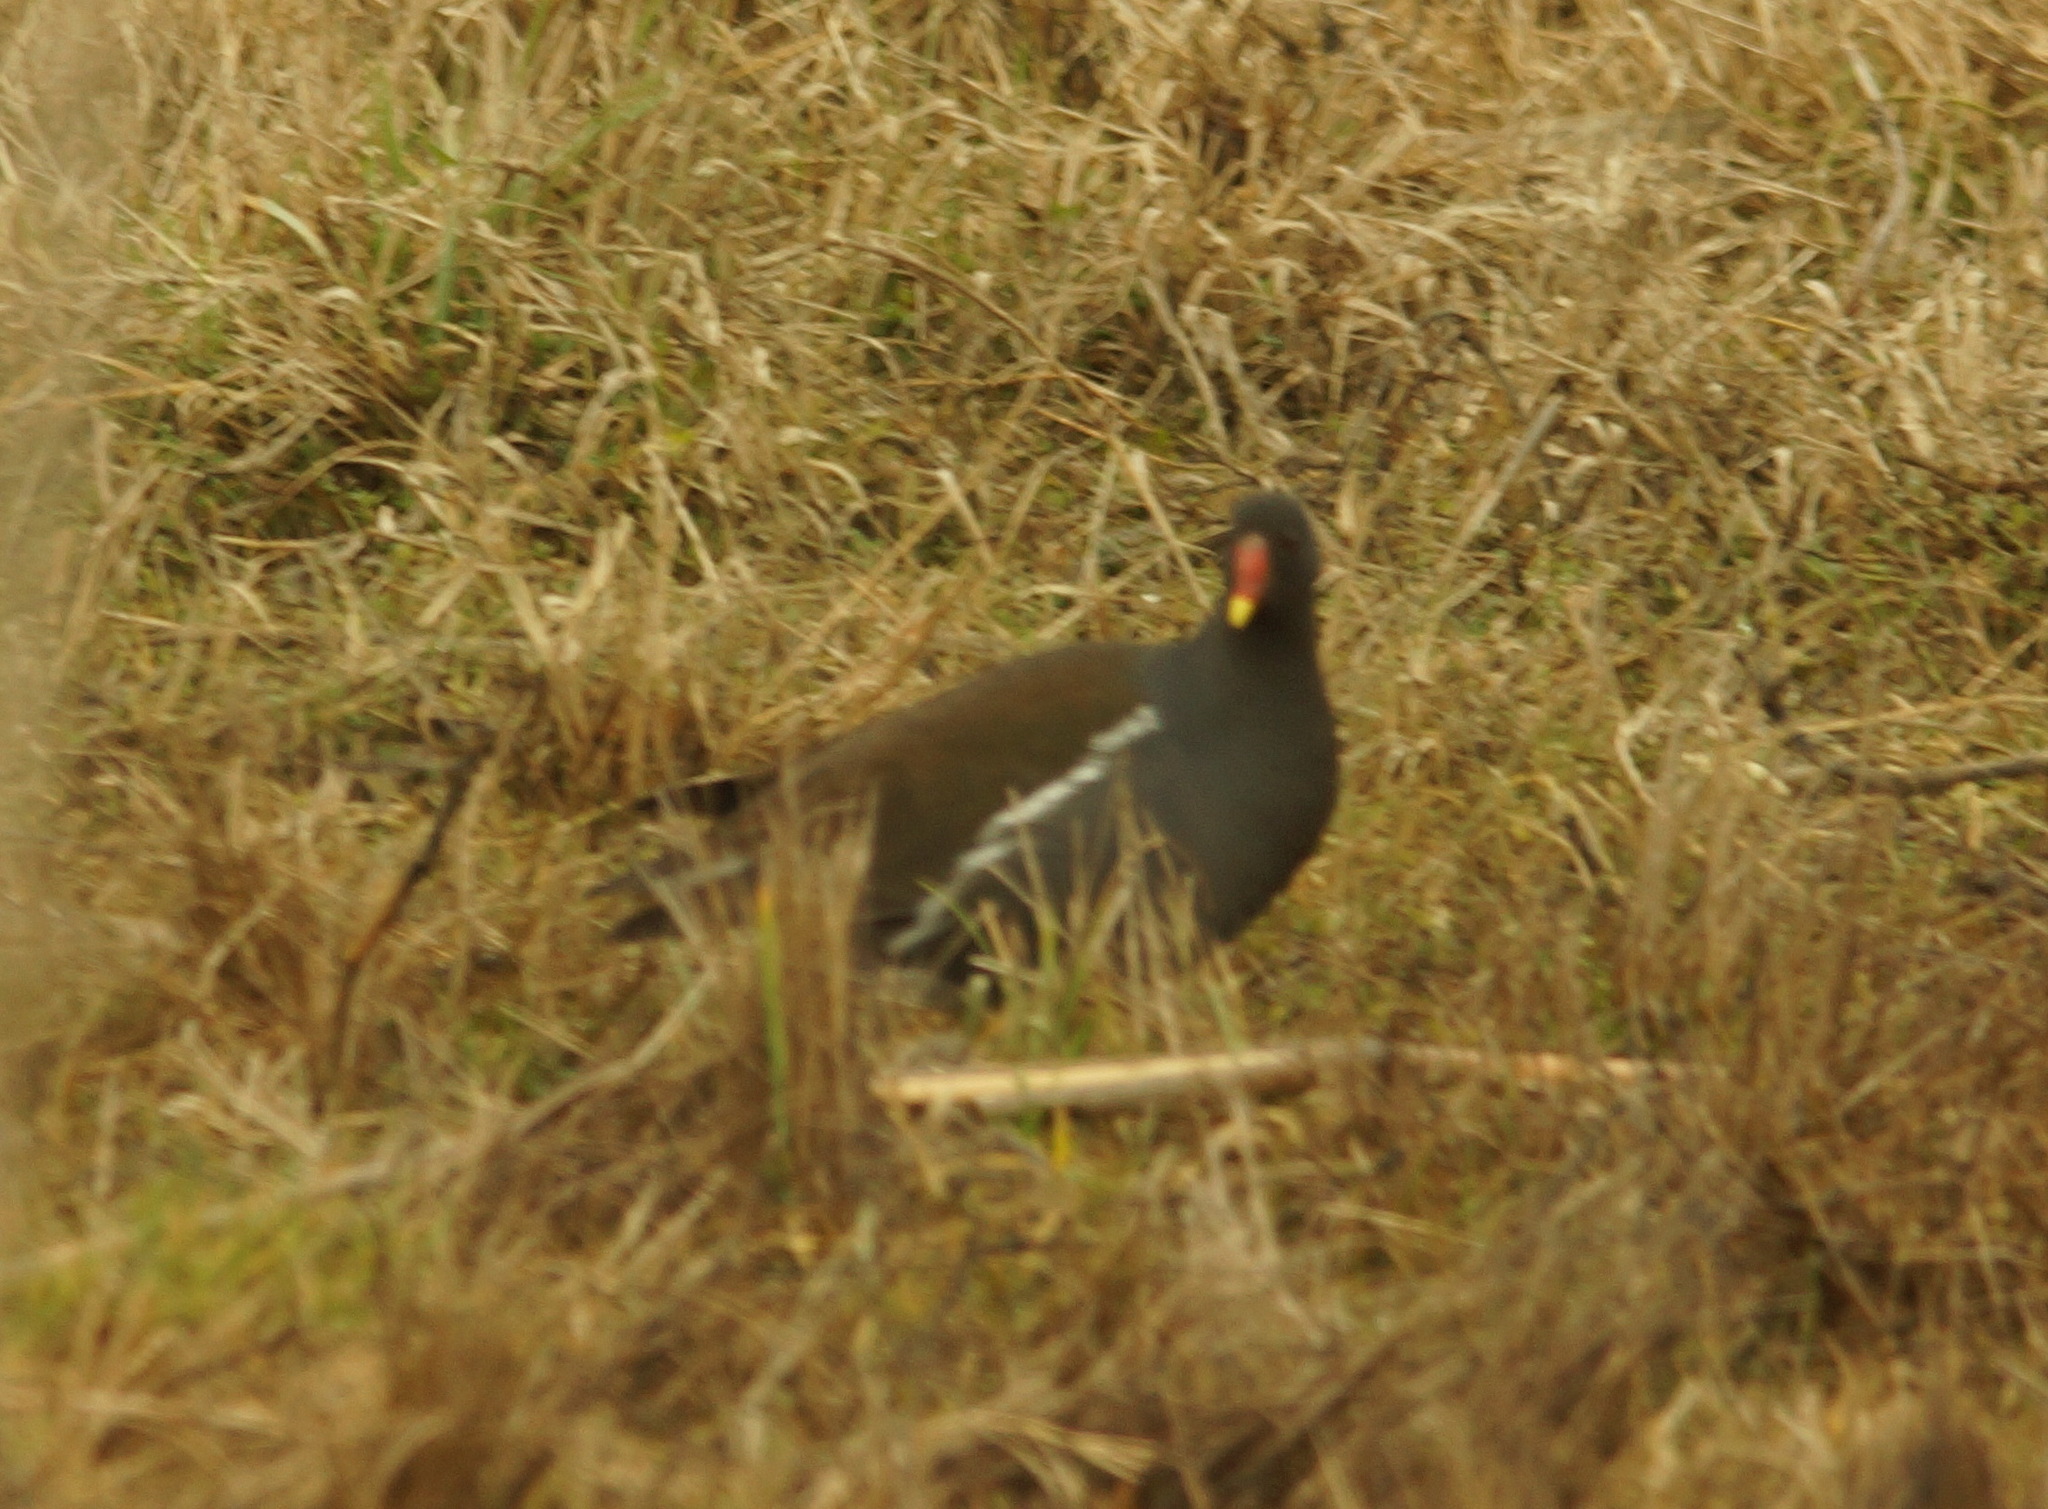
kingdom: Animalia
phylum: Chordata
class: Aves
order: Gruiformes
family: Rallidae
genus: Gallinula
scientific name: Gallinula chloropus
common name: Common moorhen
